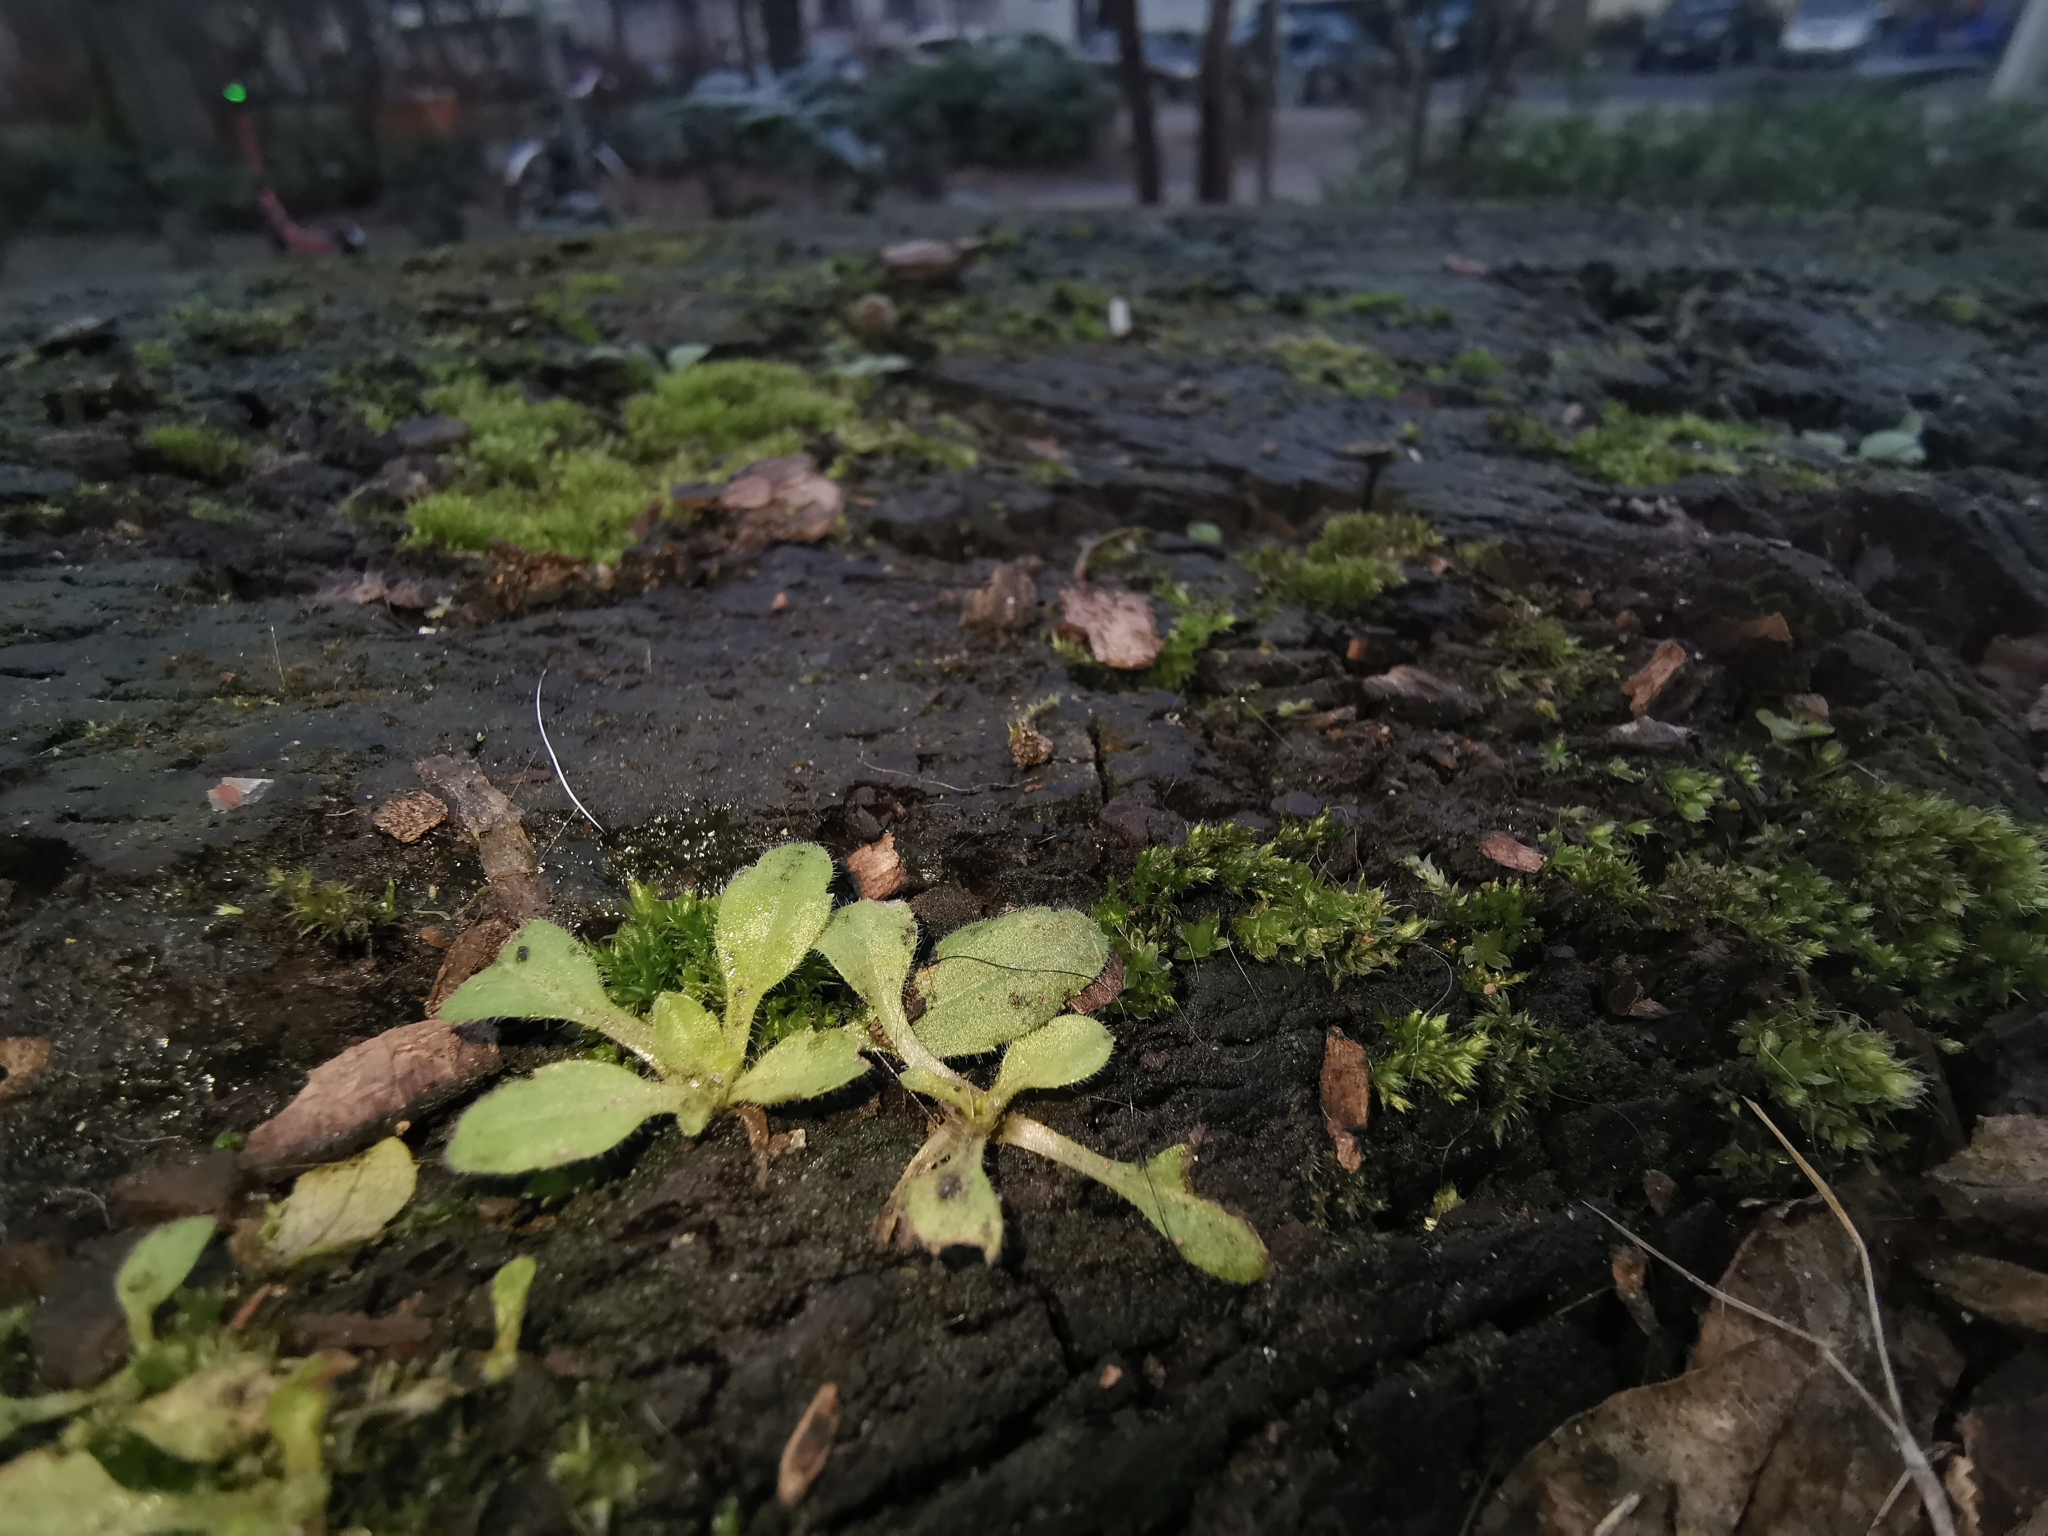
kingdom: Plantae
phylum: Tracheophyta
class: Magnoliopsida
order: Asterales
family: Asteraceae
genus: Erigeron
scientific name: Erigeron canadensis
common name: Canadian fleabane
